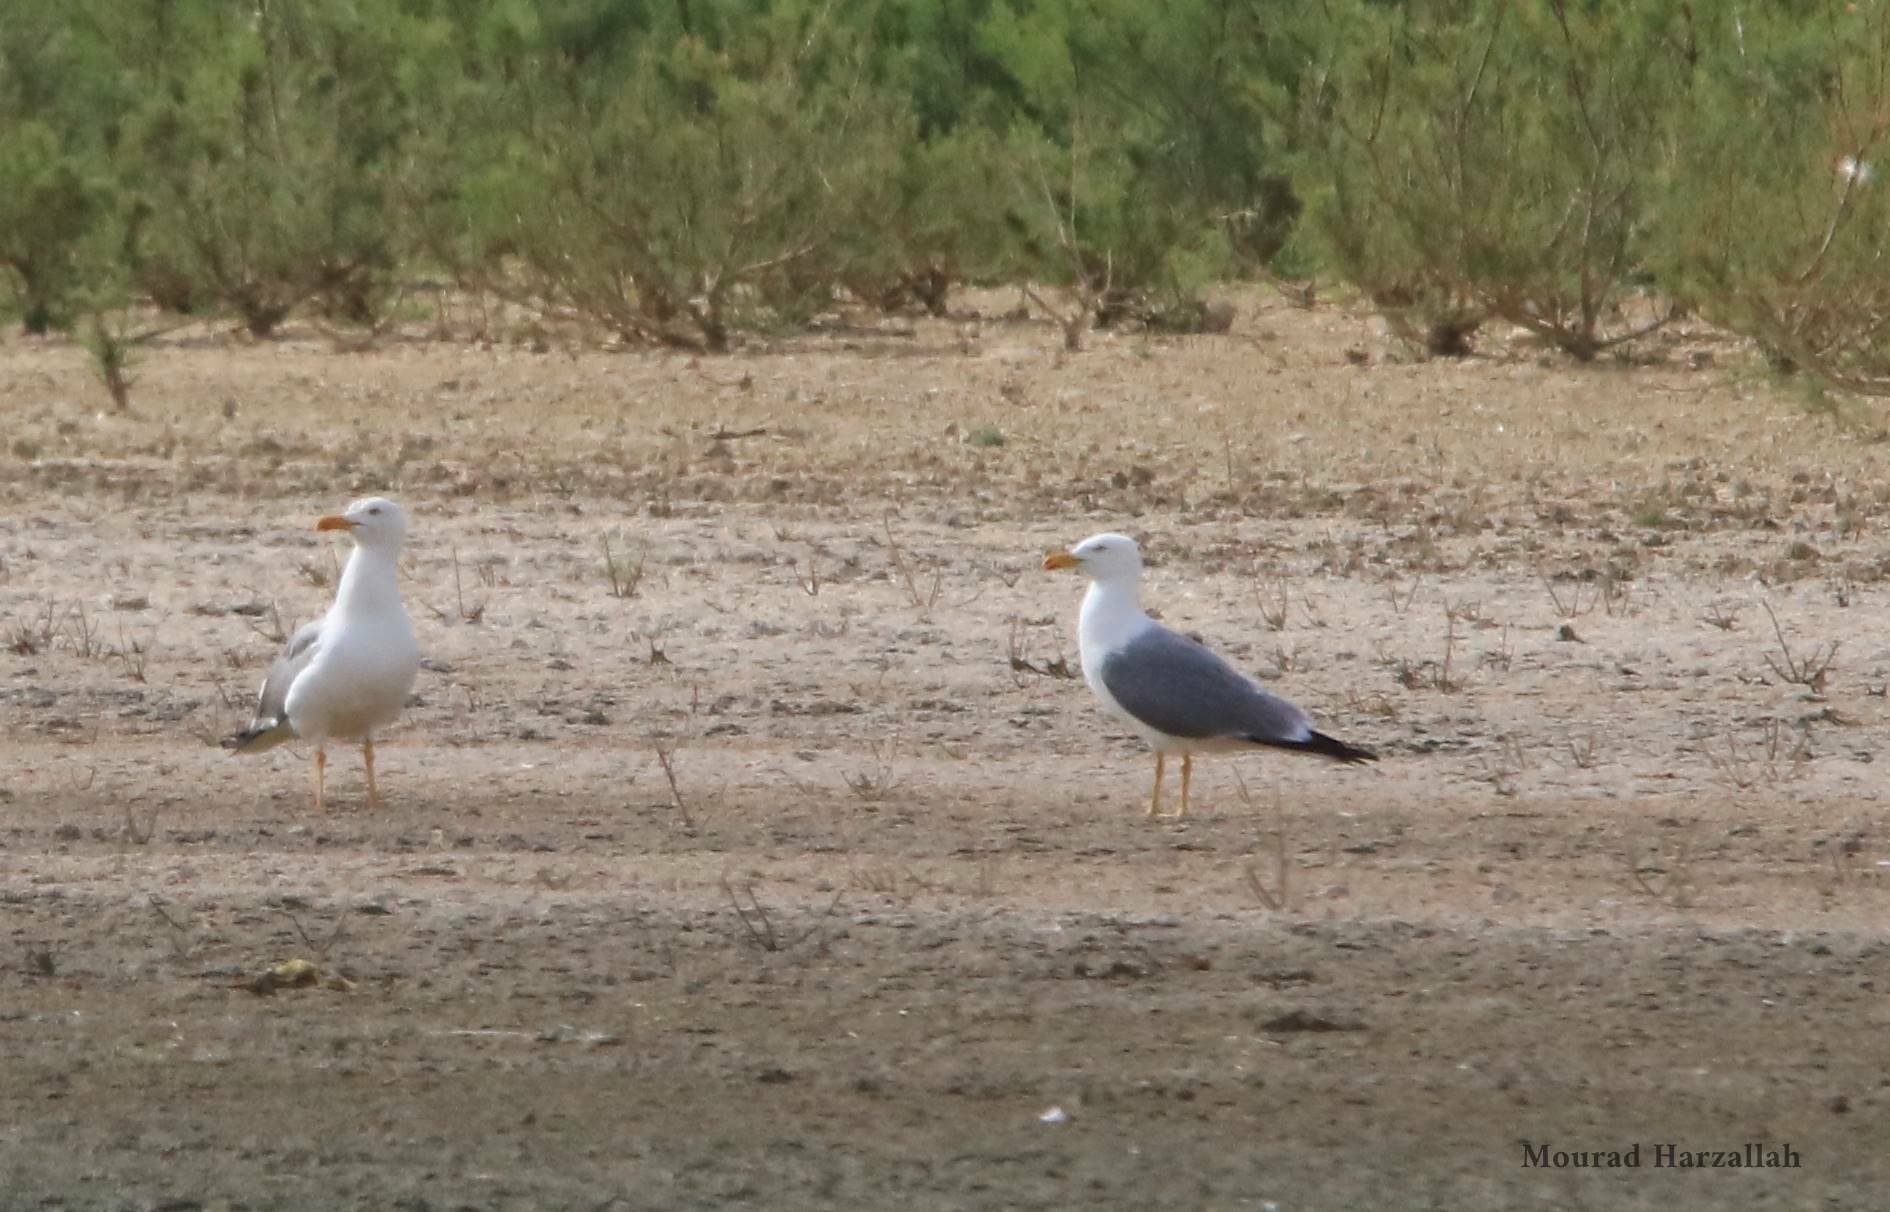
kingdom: Animalia
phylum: Chordata
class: Aves
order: Charadriiformes
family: Laridae
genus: Larus
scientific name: Larus michahellis
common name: Yellow-legged gull
